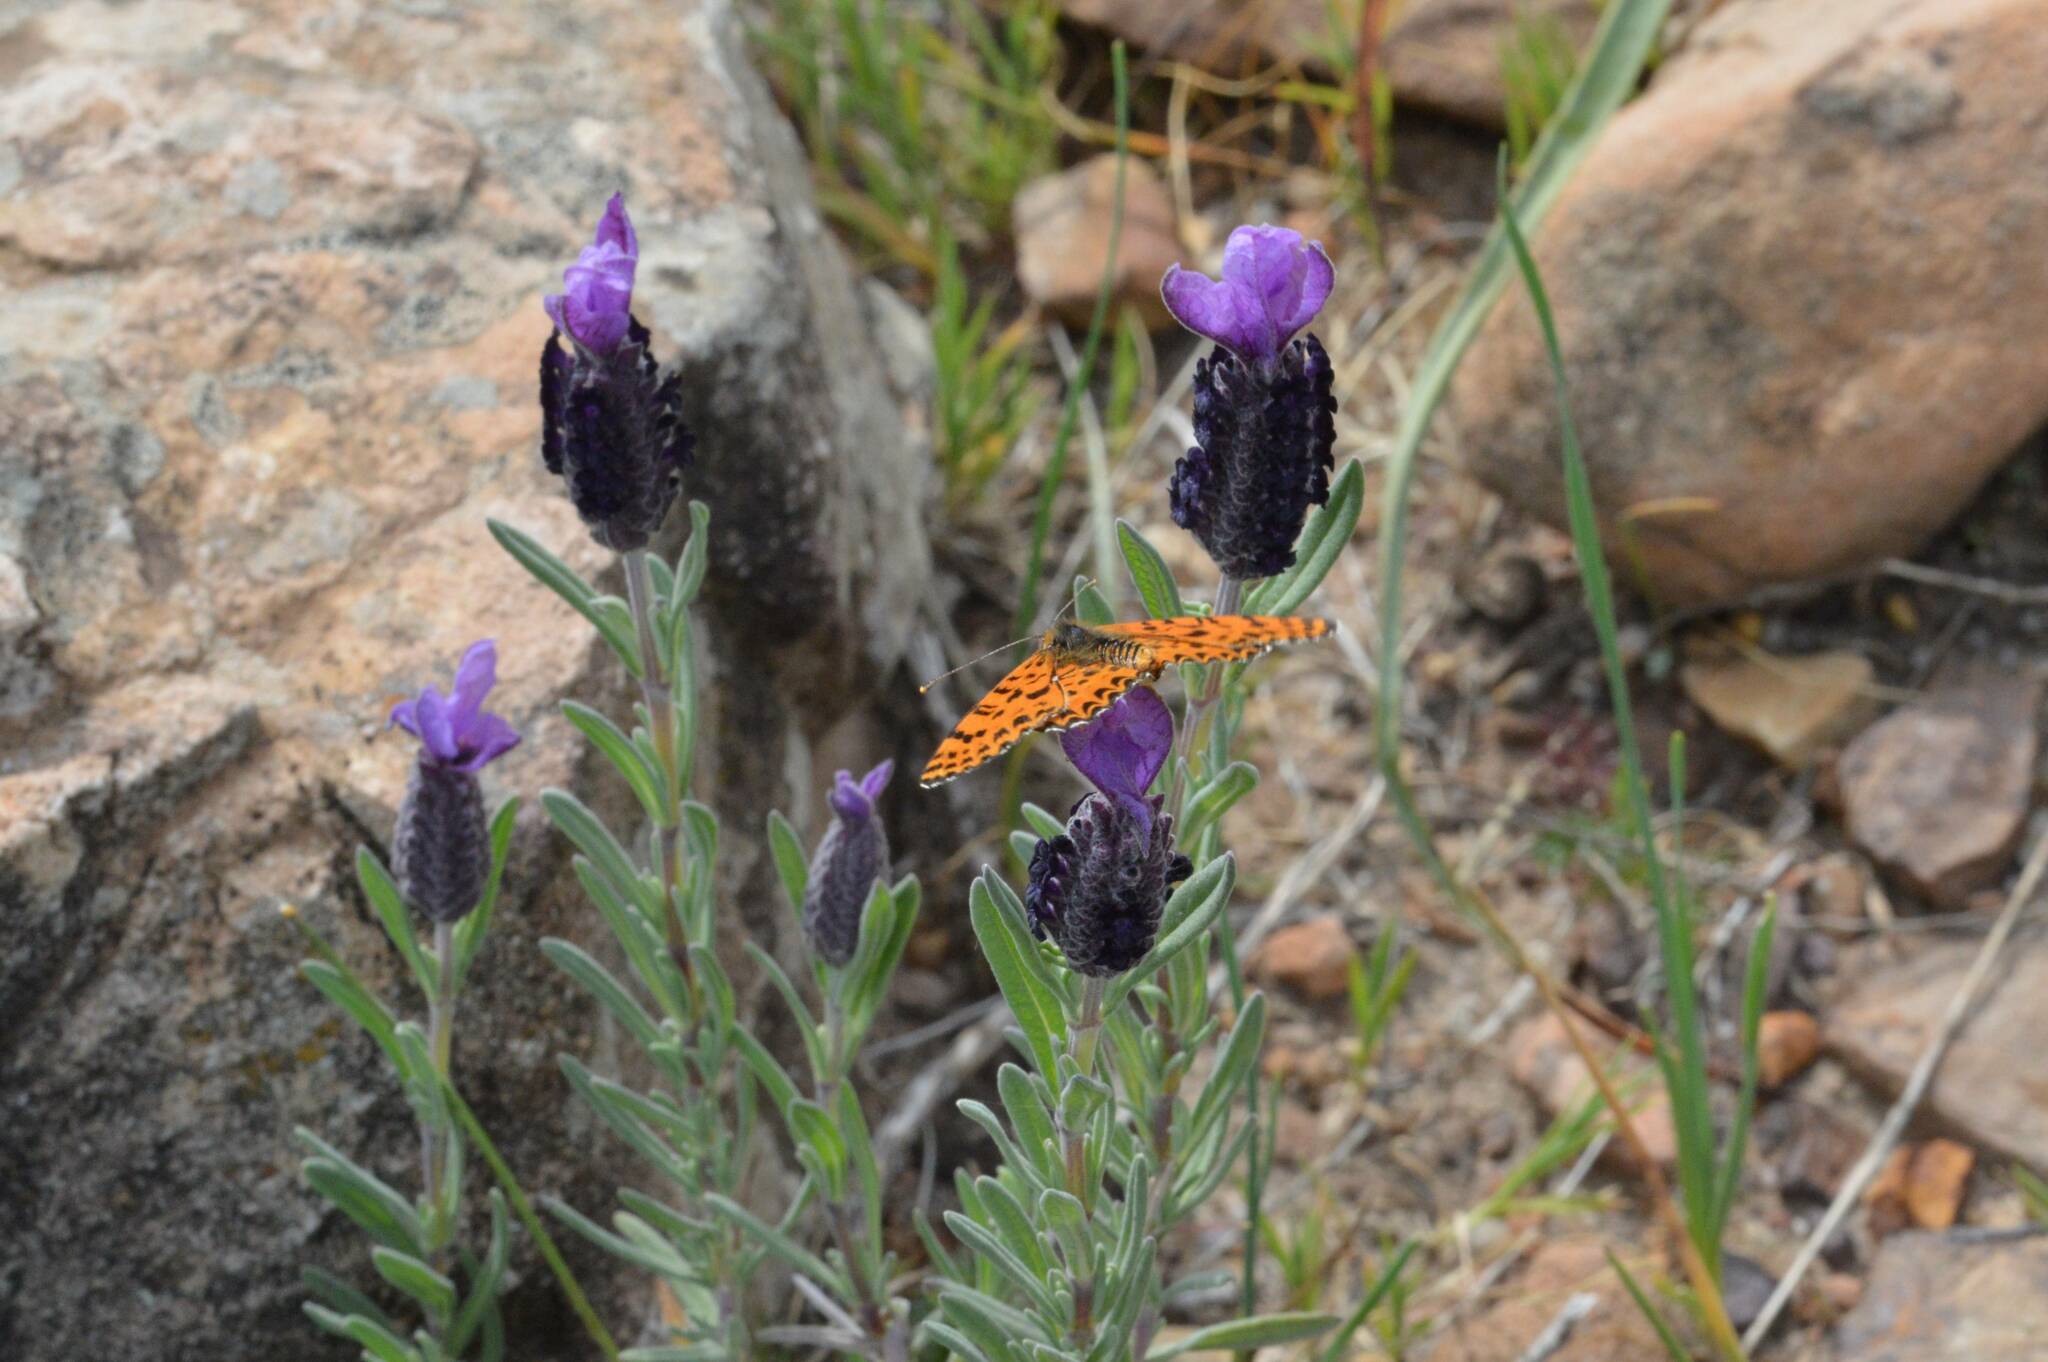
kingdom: Plantae
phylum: Tracheophyta
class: Magnoliopsida
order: Lamiales
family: Lamiaceae
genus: Lavandula
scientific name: Lavandula stoechas
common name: French lavender
